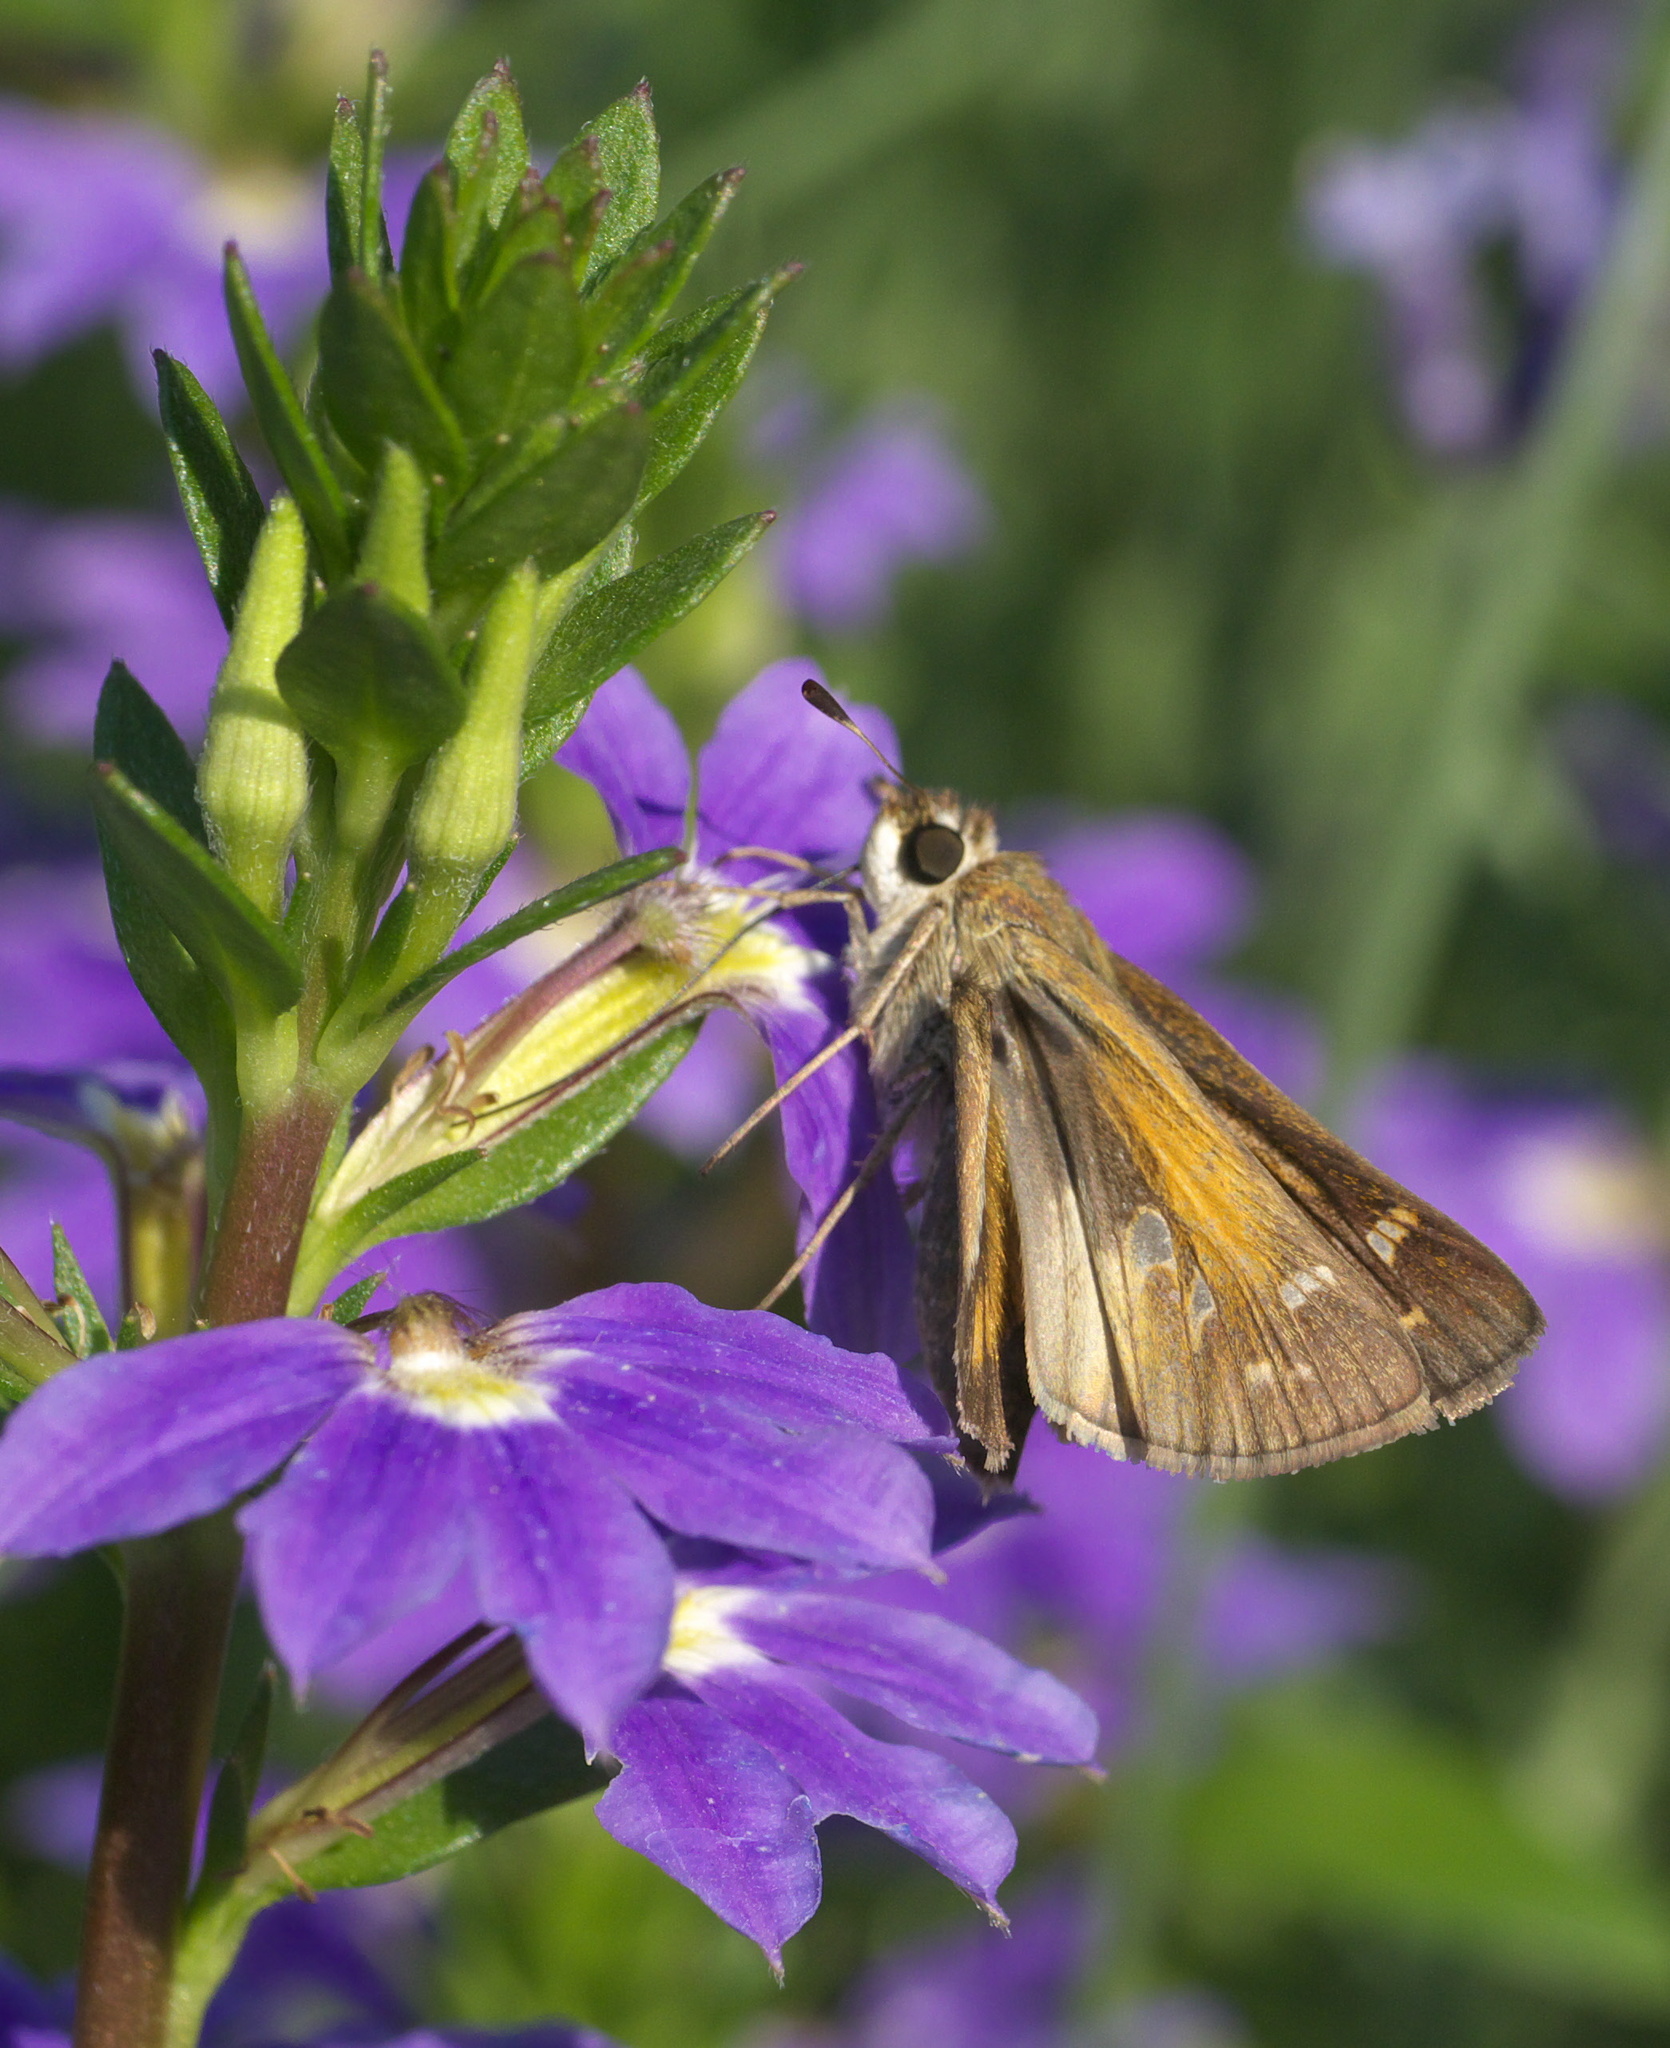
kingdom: Animalia
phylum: Arthropoda
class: Insecta
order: Lepidoptera
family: Hesperiidae
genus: Atalopedes
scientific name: Atalopedes
